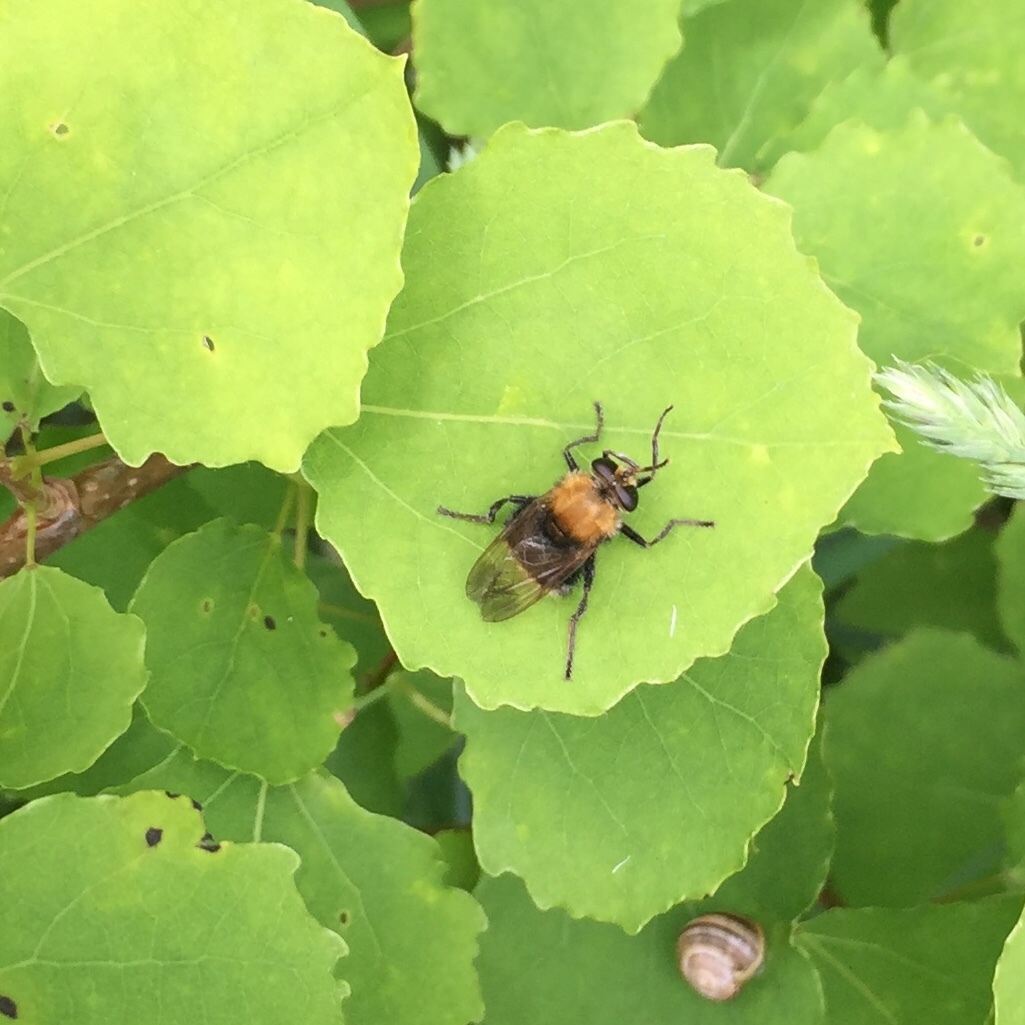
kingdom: Animalia
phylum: Arthropoda
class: Insecta
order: Diptera
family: Syrphidae
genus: Criorhina
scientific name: Criorhina berberina
